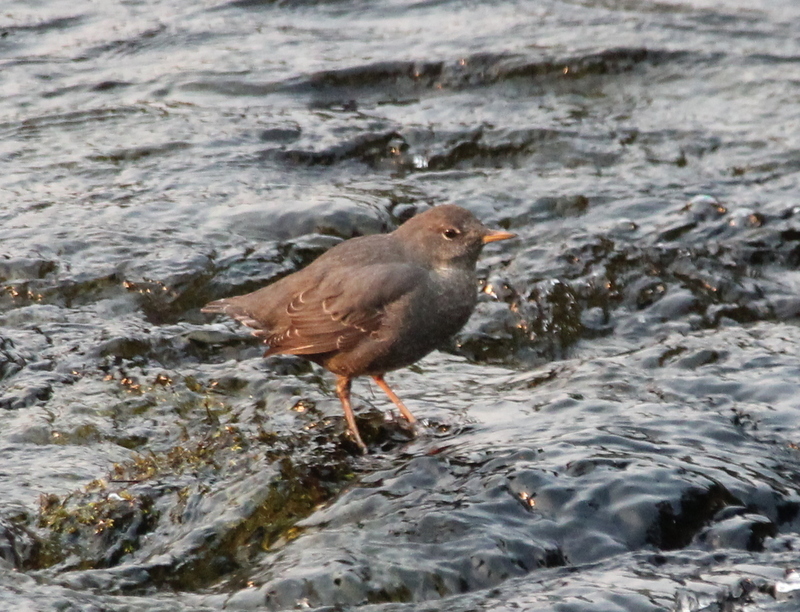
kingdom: Animalia
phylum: Chordata
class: Aves
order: Passeriformes
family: Cinclidae
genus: Cinclus
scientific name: Cinclus mexicanus
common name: American dipper
